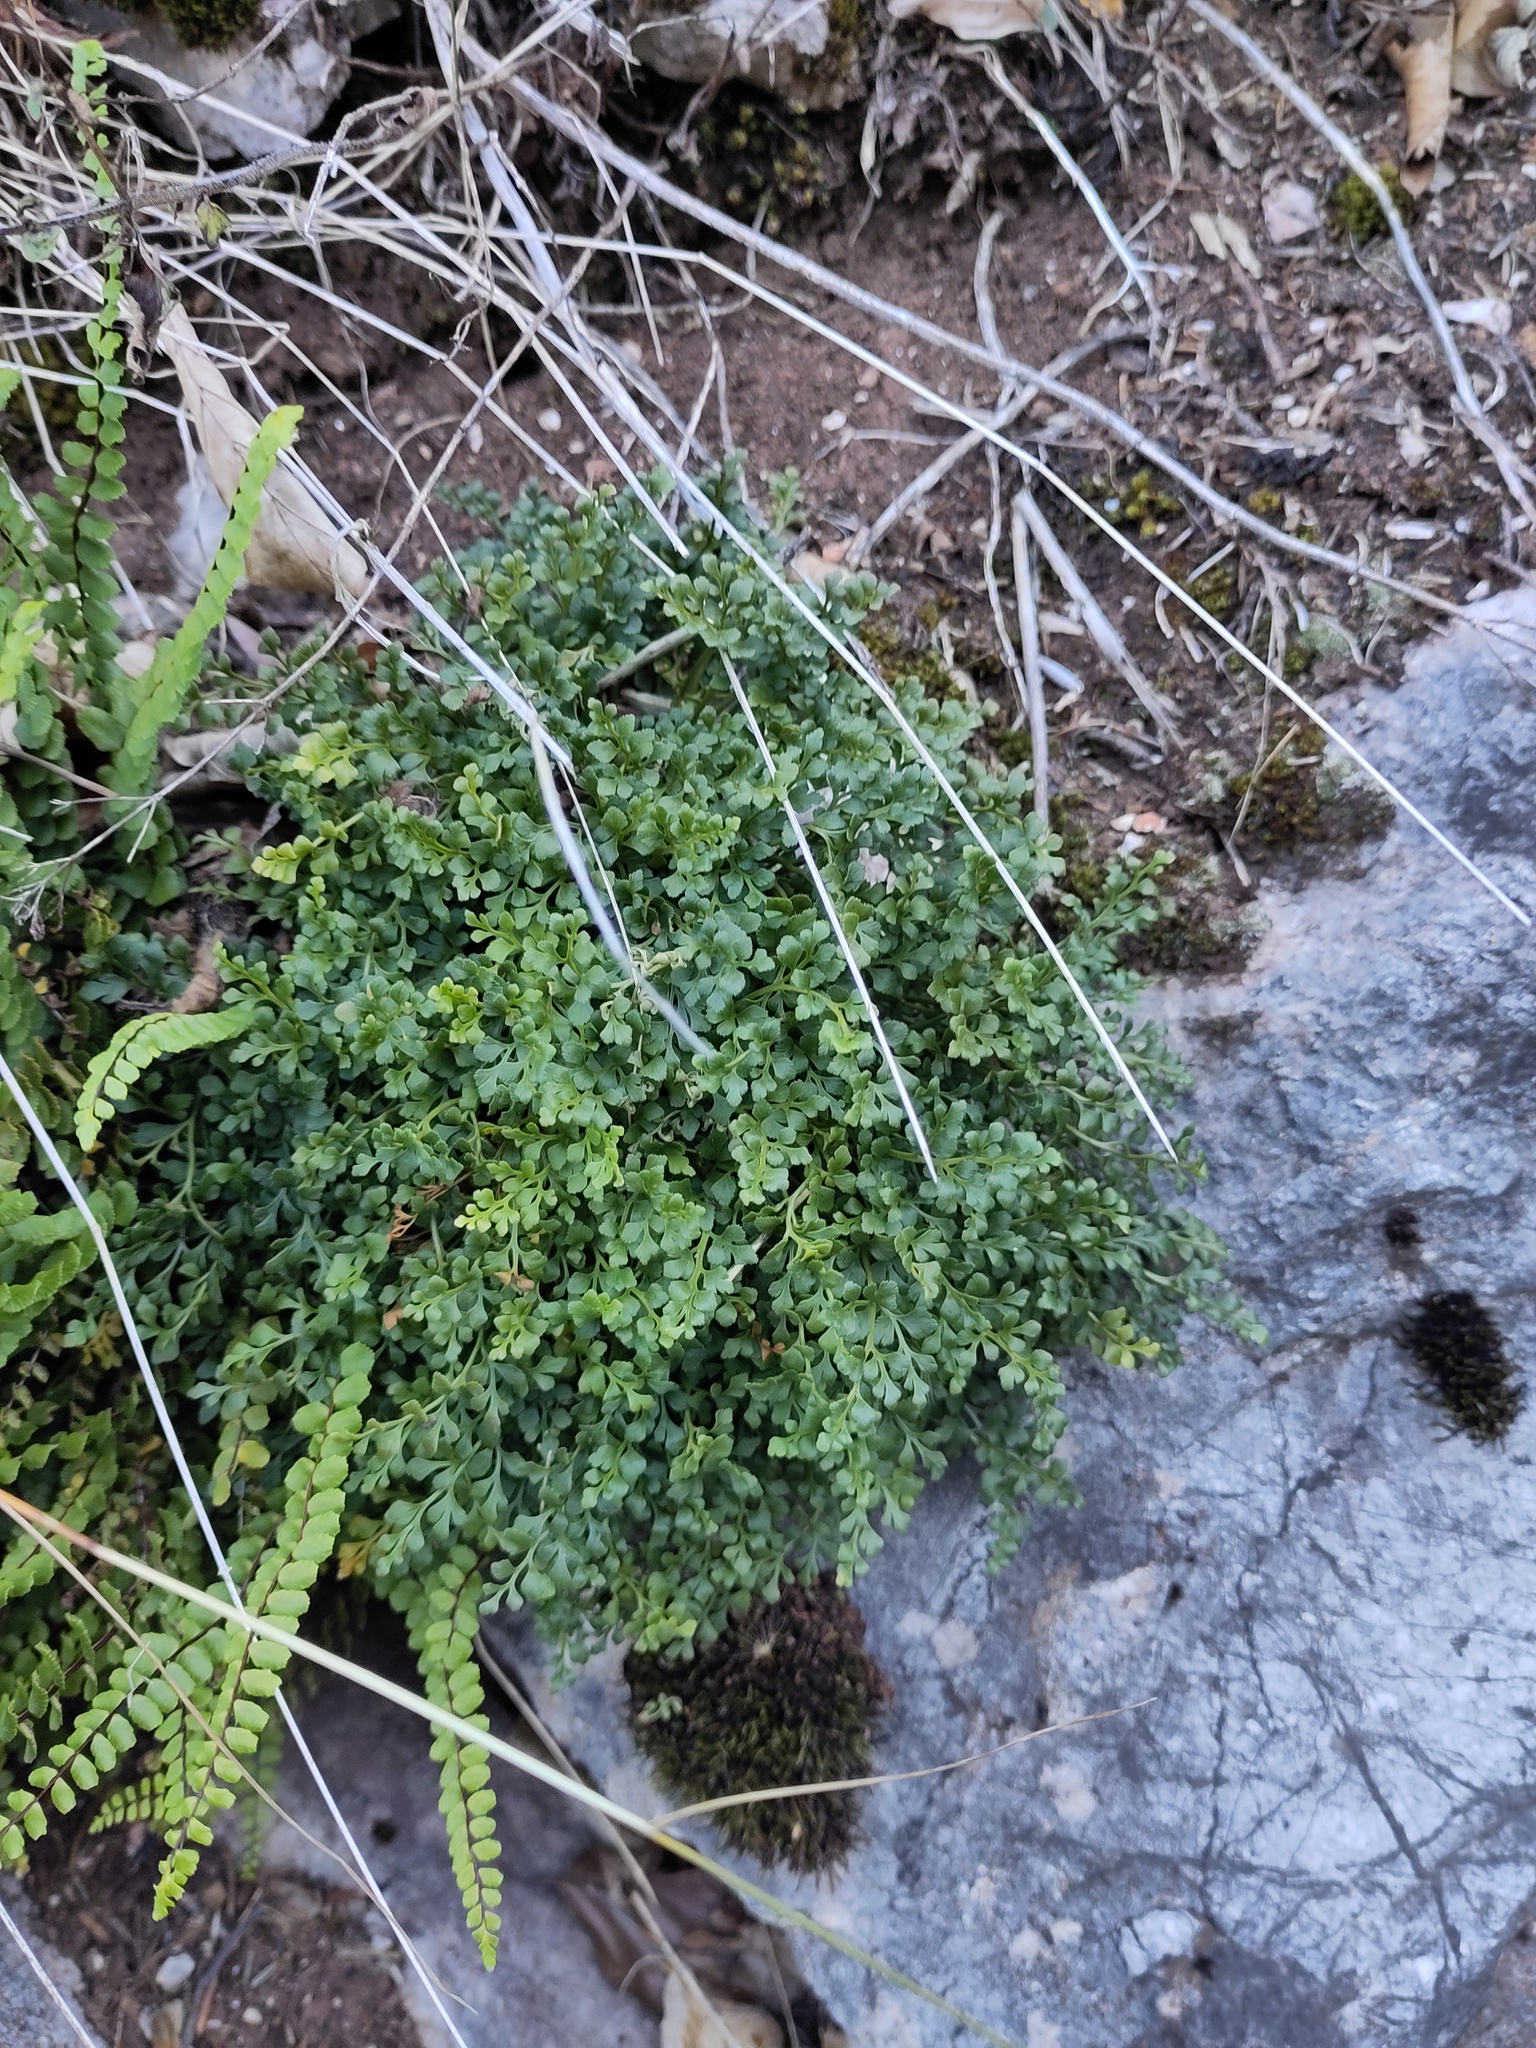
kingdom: Plantae
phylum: Tracheophyta
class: Polypodiopsida
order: Polypodiales
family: Aspleniaceae
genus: Asplenium
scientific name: Asplenium ruta-muraria
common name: Wall-rue
